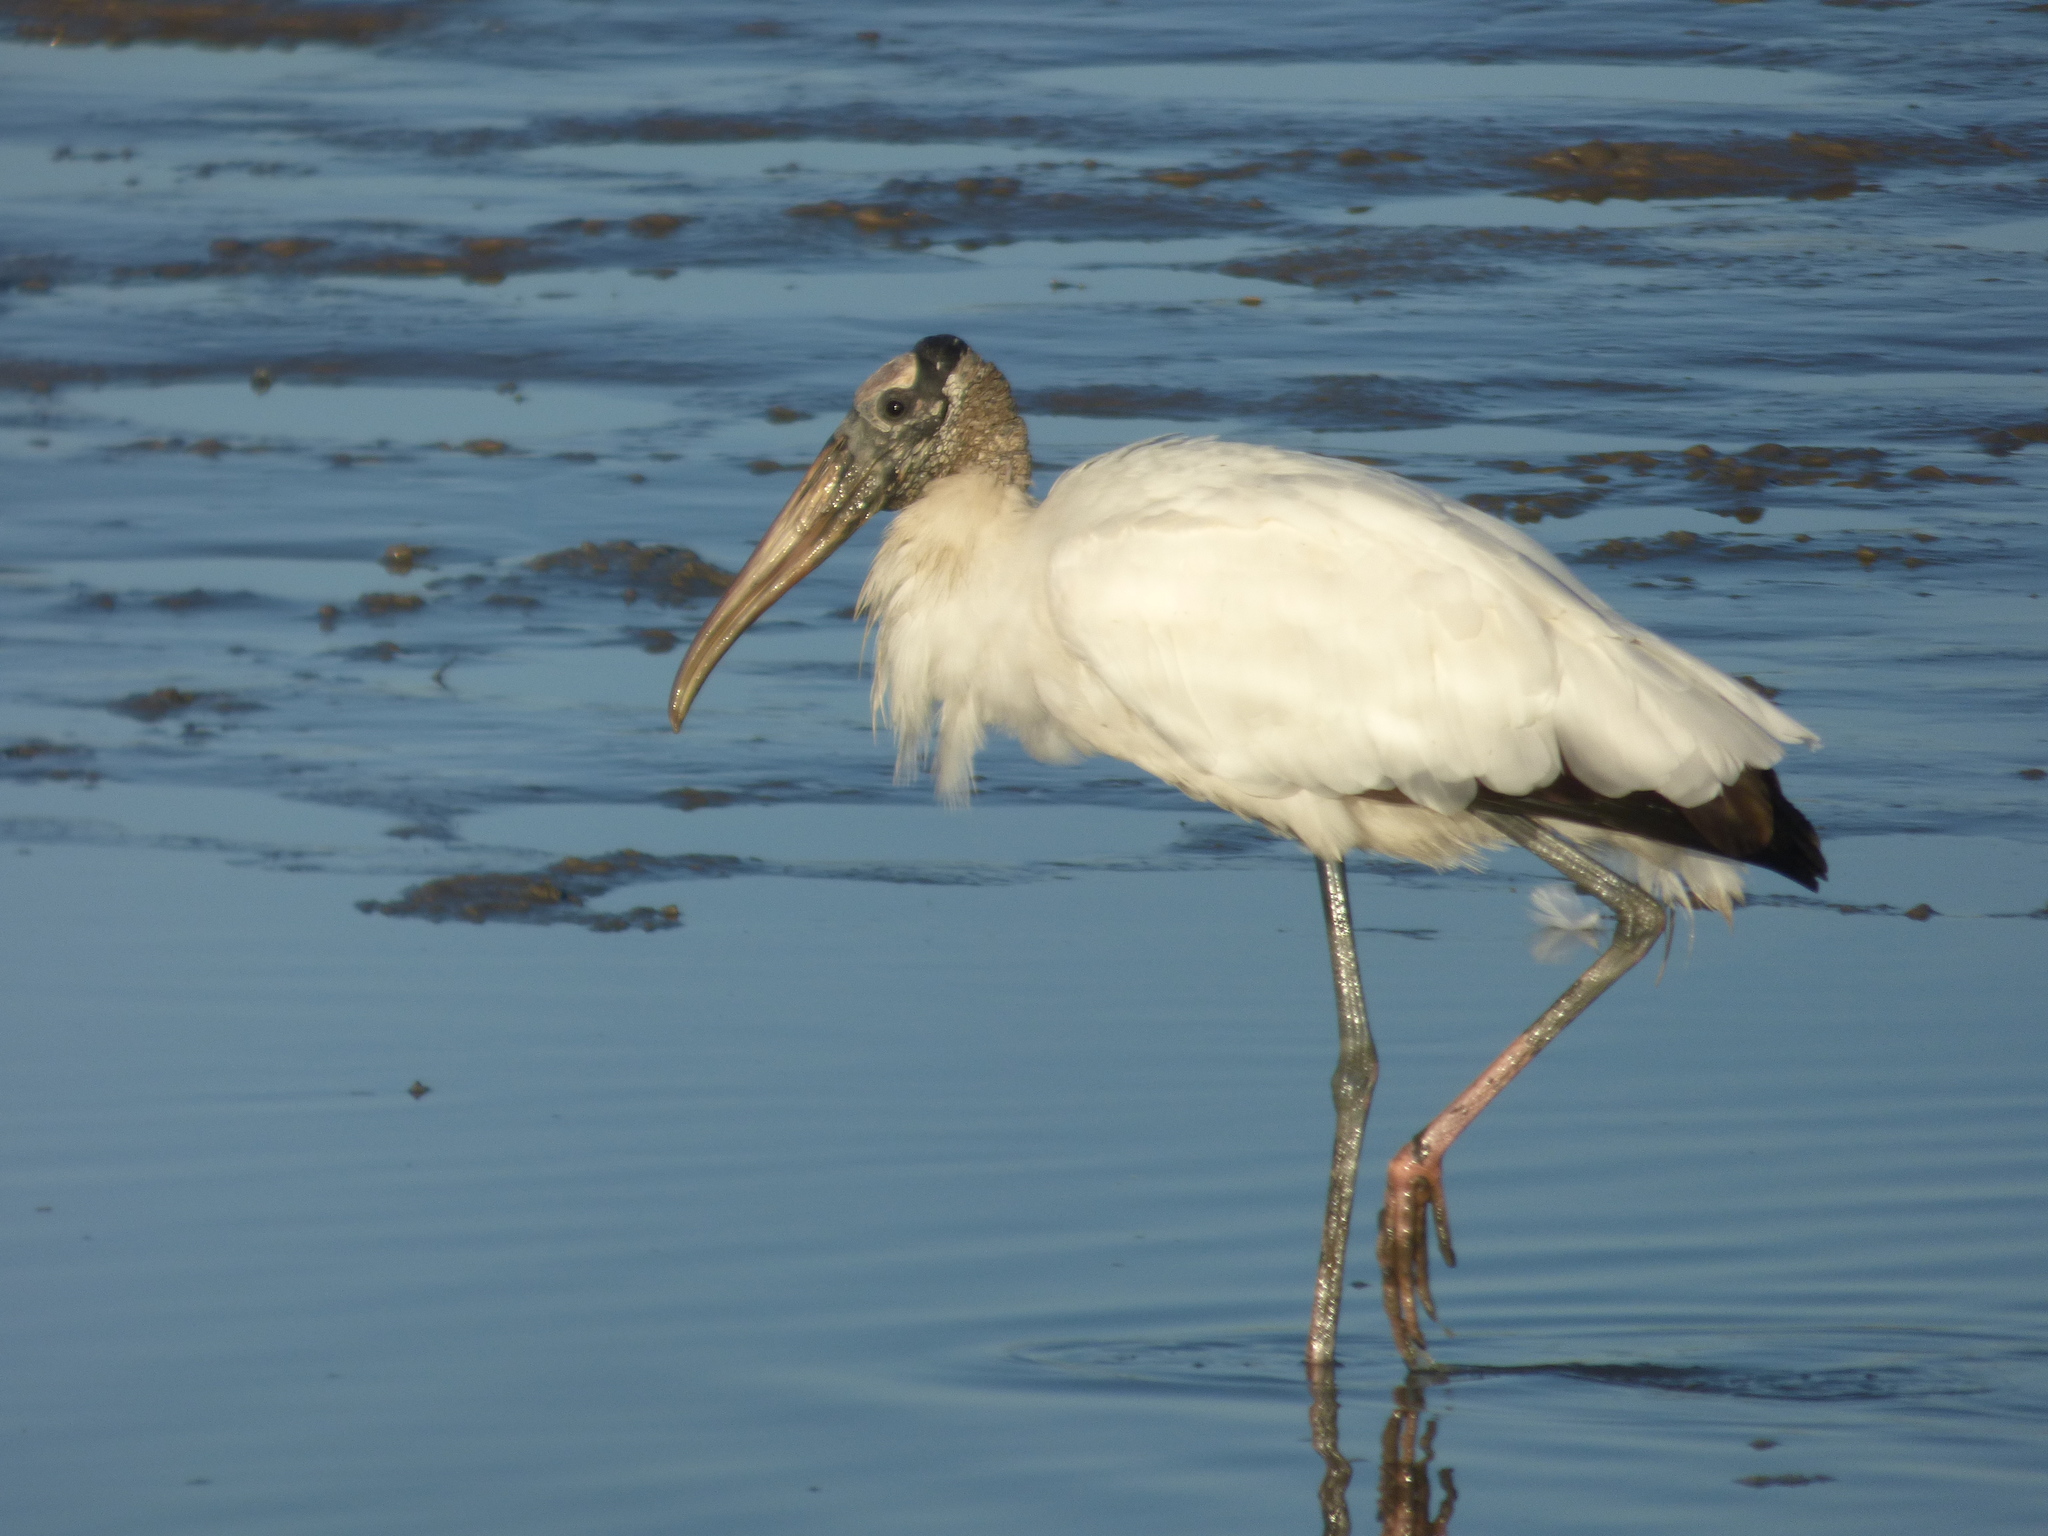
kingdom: Animalia
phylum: Chordata
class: Aves
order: Ciconiiformes
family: Ciconiidae
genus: Mycteria
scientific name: Mycteria americana
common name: Wood stork
